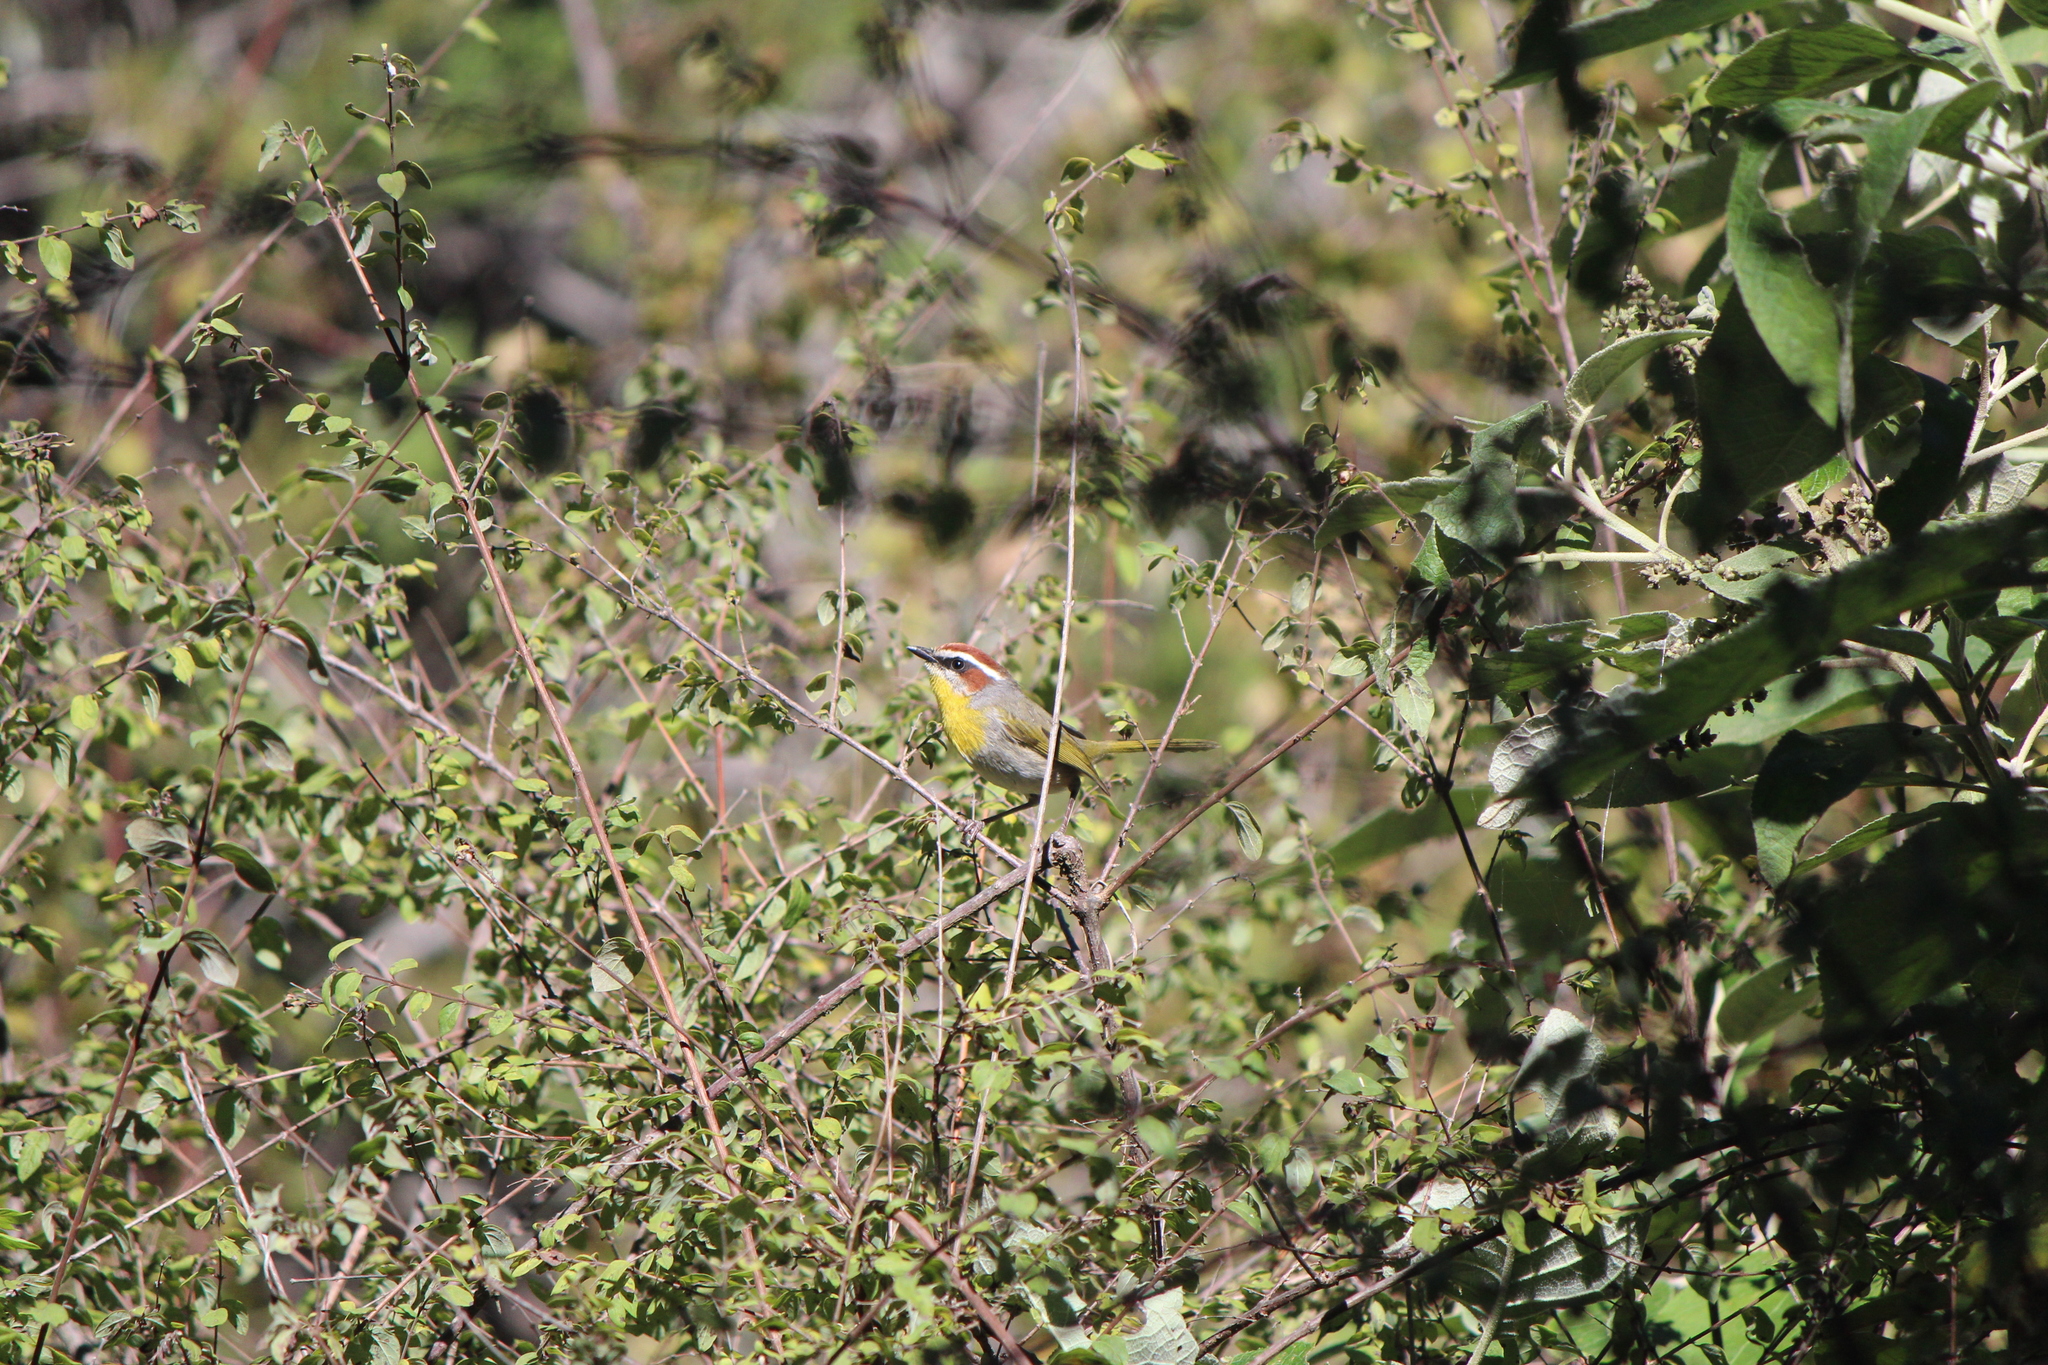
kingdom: Animalia
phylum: Chordata
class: Aves
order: Passeriformes
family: Parulidae
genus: Basileuterus
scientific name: Basileuterus rufifrons
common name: Rufous-capped warbler
